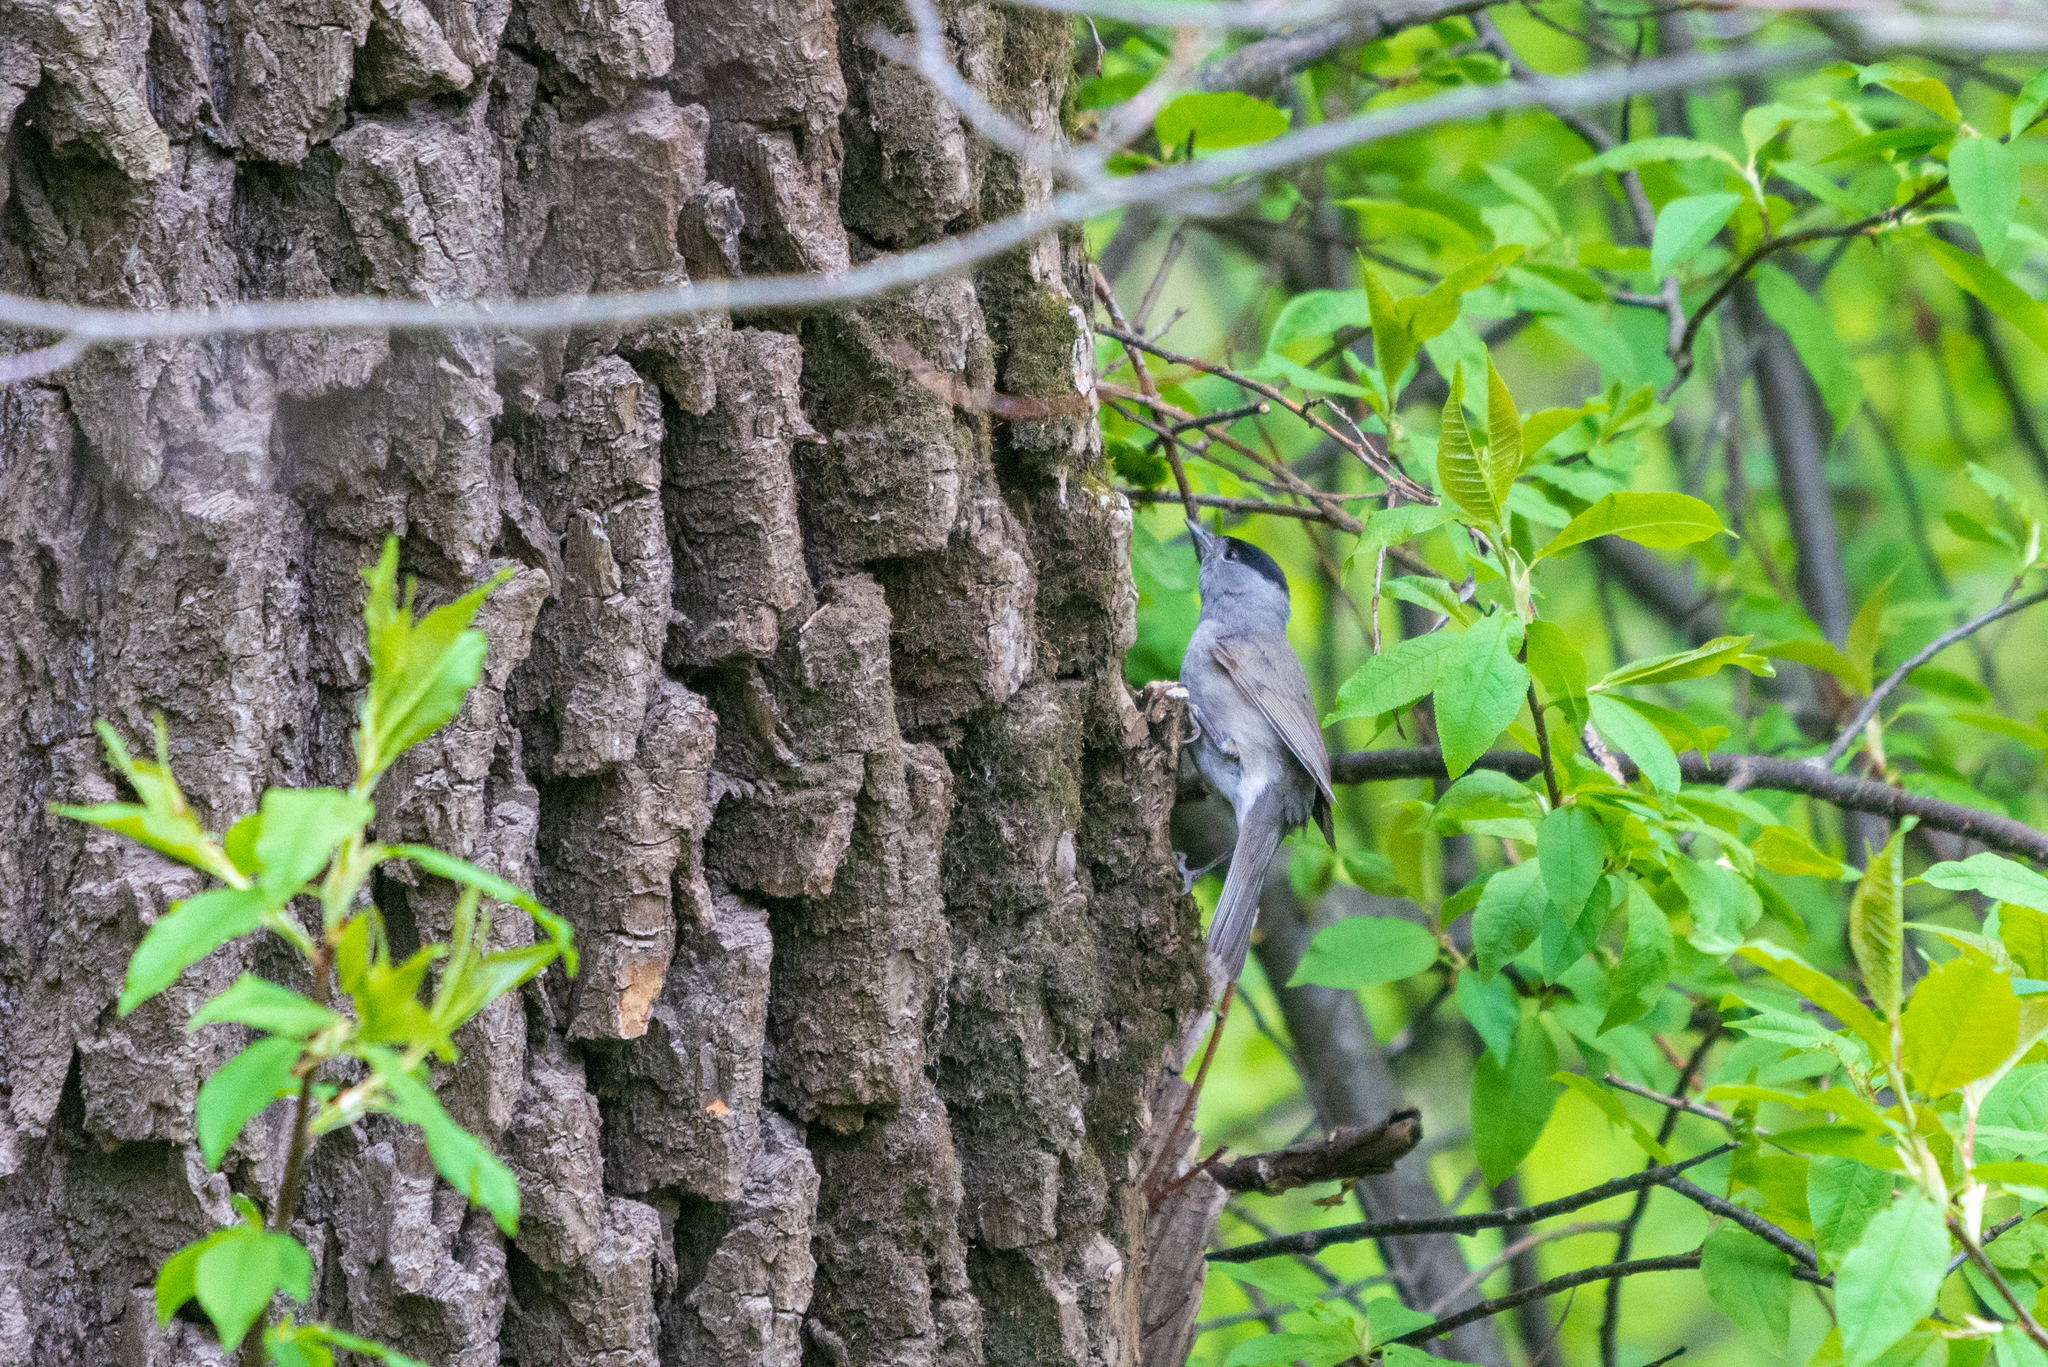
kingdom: Animalia
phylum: Chordata
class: Aves
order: Passeriformes
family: Sylviidae
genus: Sylvia
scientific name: Sylvia atricapilla
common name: Eurasian blackcap
